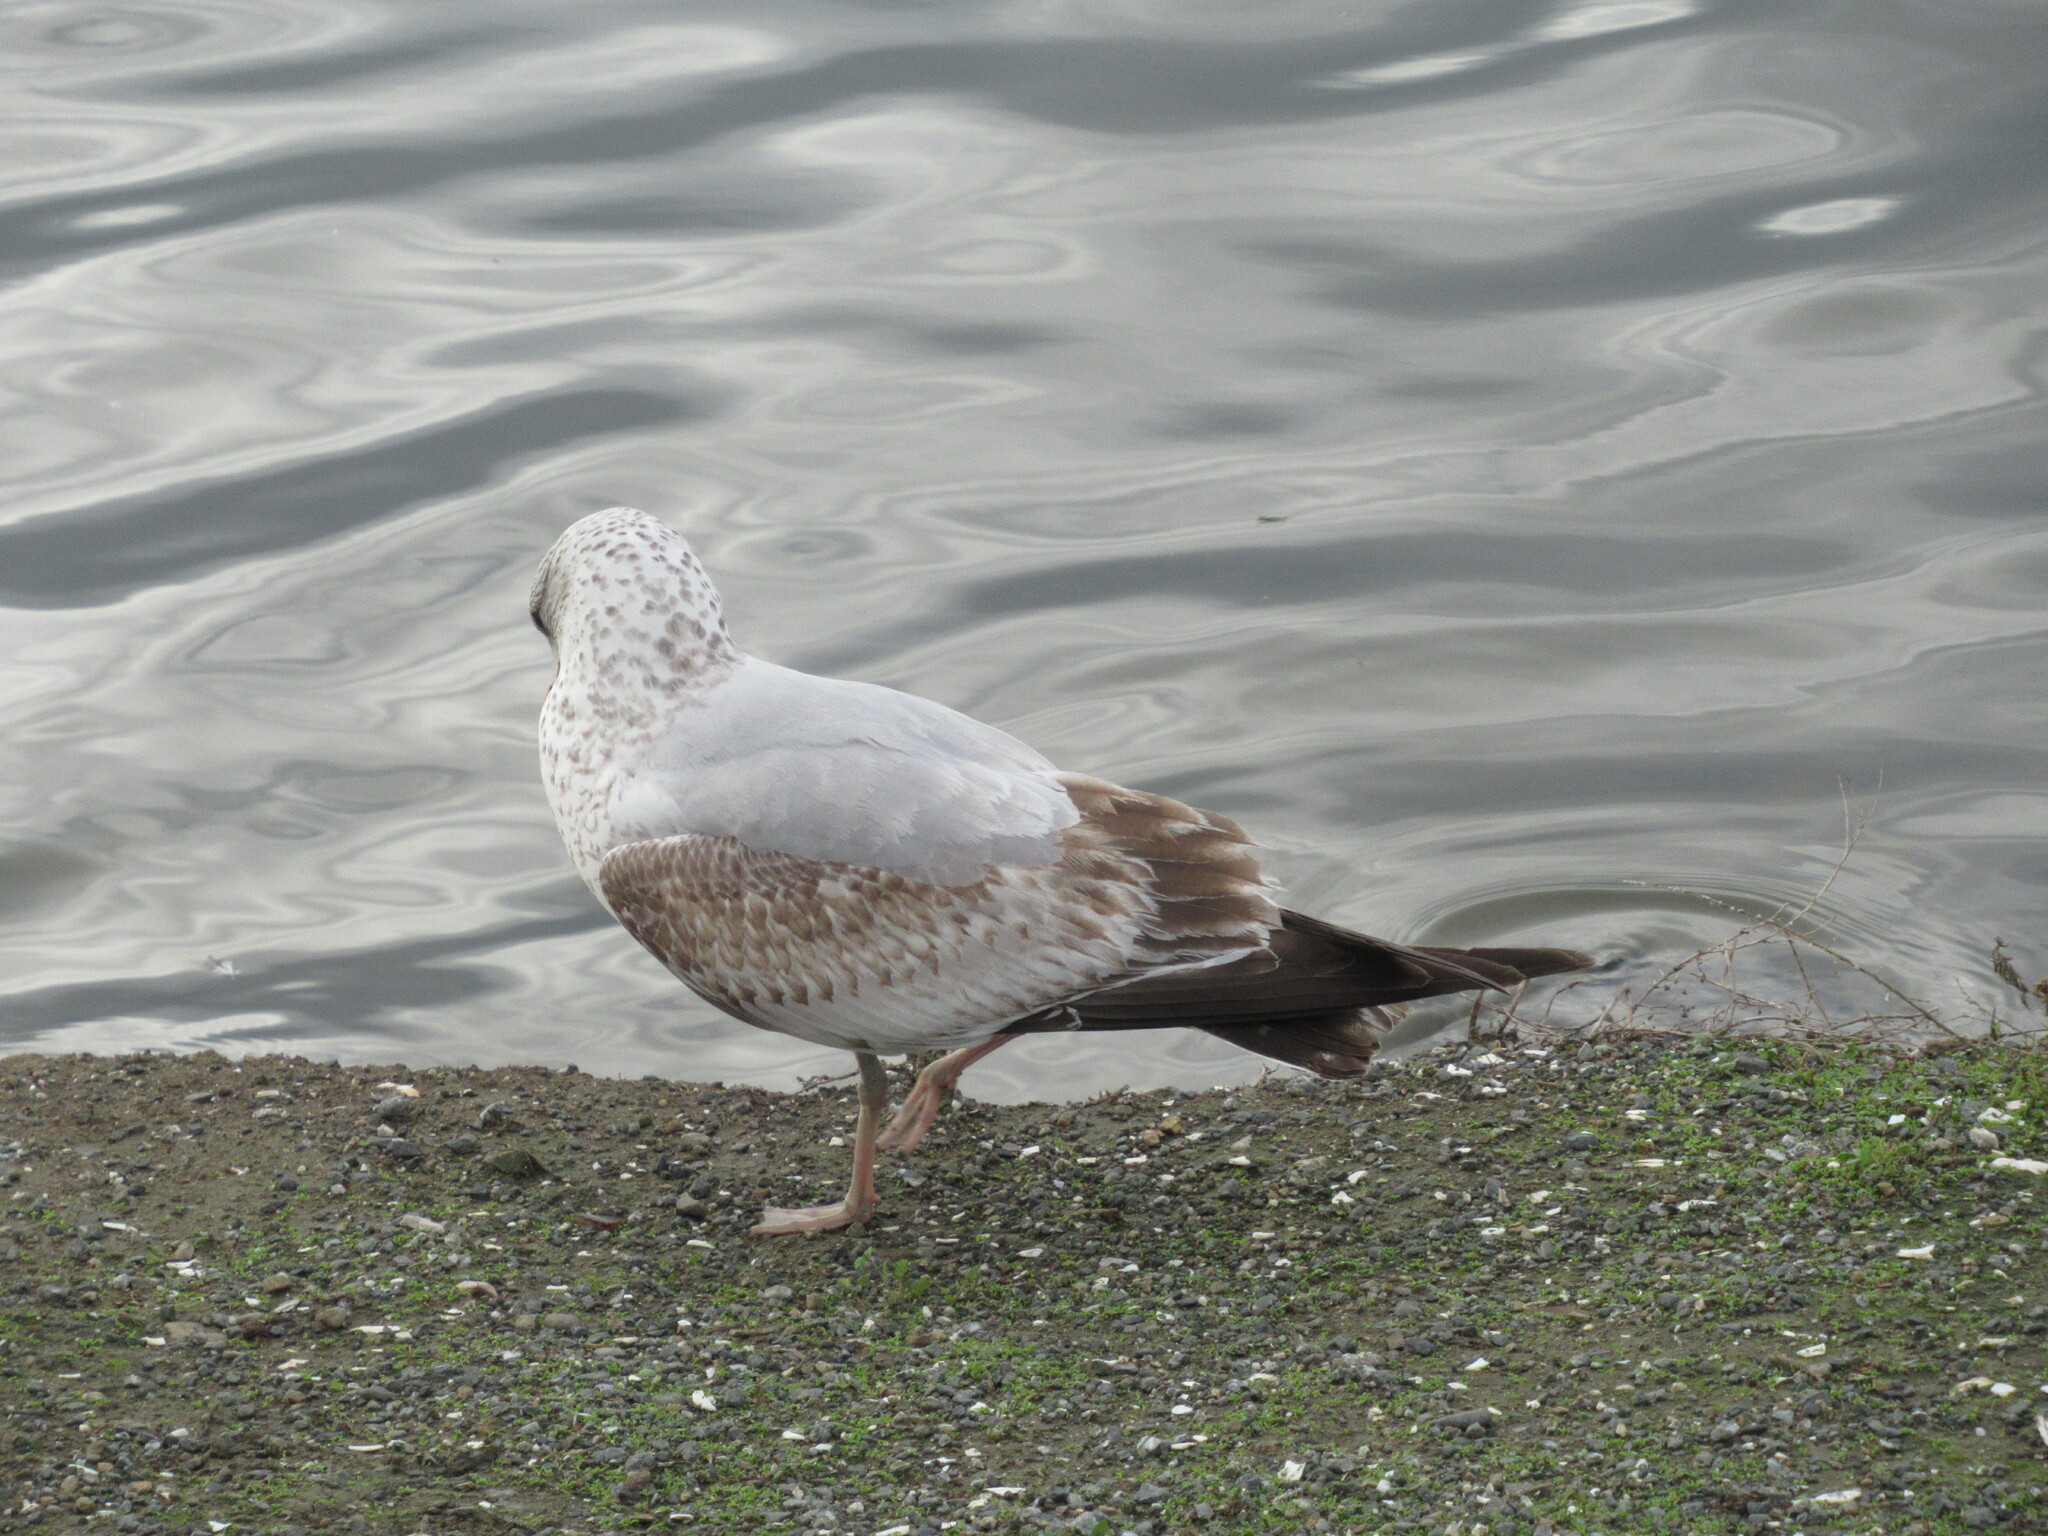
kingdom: Animalia
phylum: Chordata
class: Aves
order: Charadriiformes
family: Laridae
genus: Larus
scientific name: Larus delawarensis
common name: Ring-billed gull
